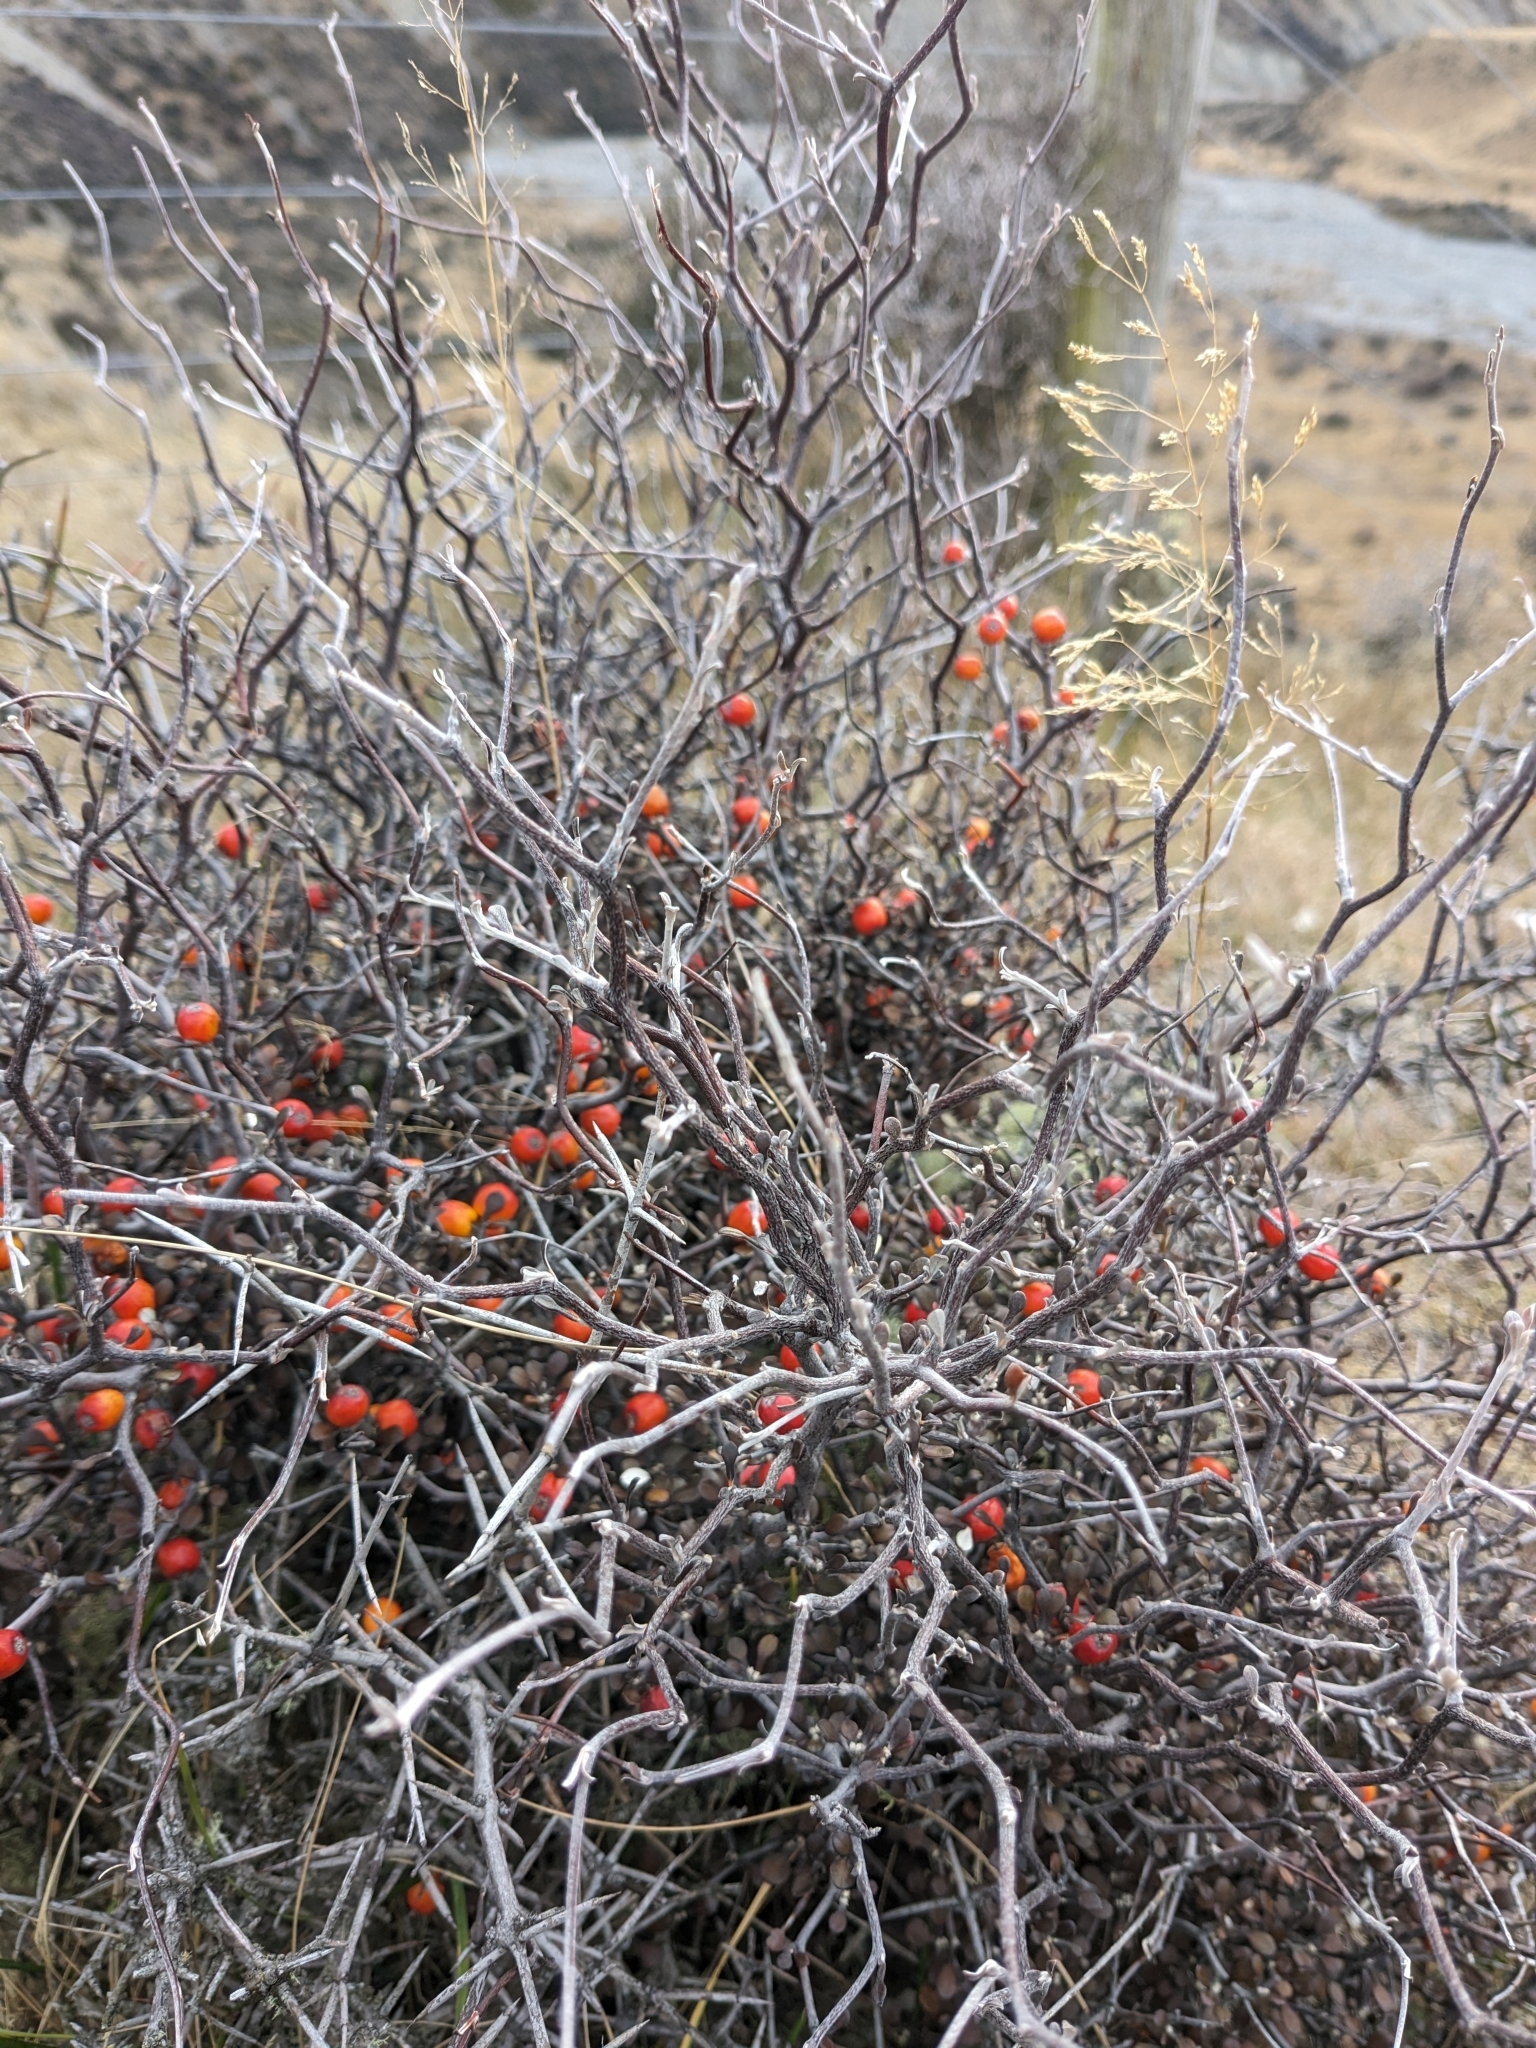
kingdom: Plantae
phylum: Tracheophyta
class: Magnoliopsida
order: Asterales
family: Argophyllaceae
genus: Corokia
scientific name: Corokia cotoneaster
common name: Wire nettingbush
